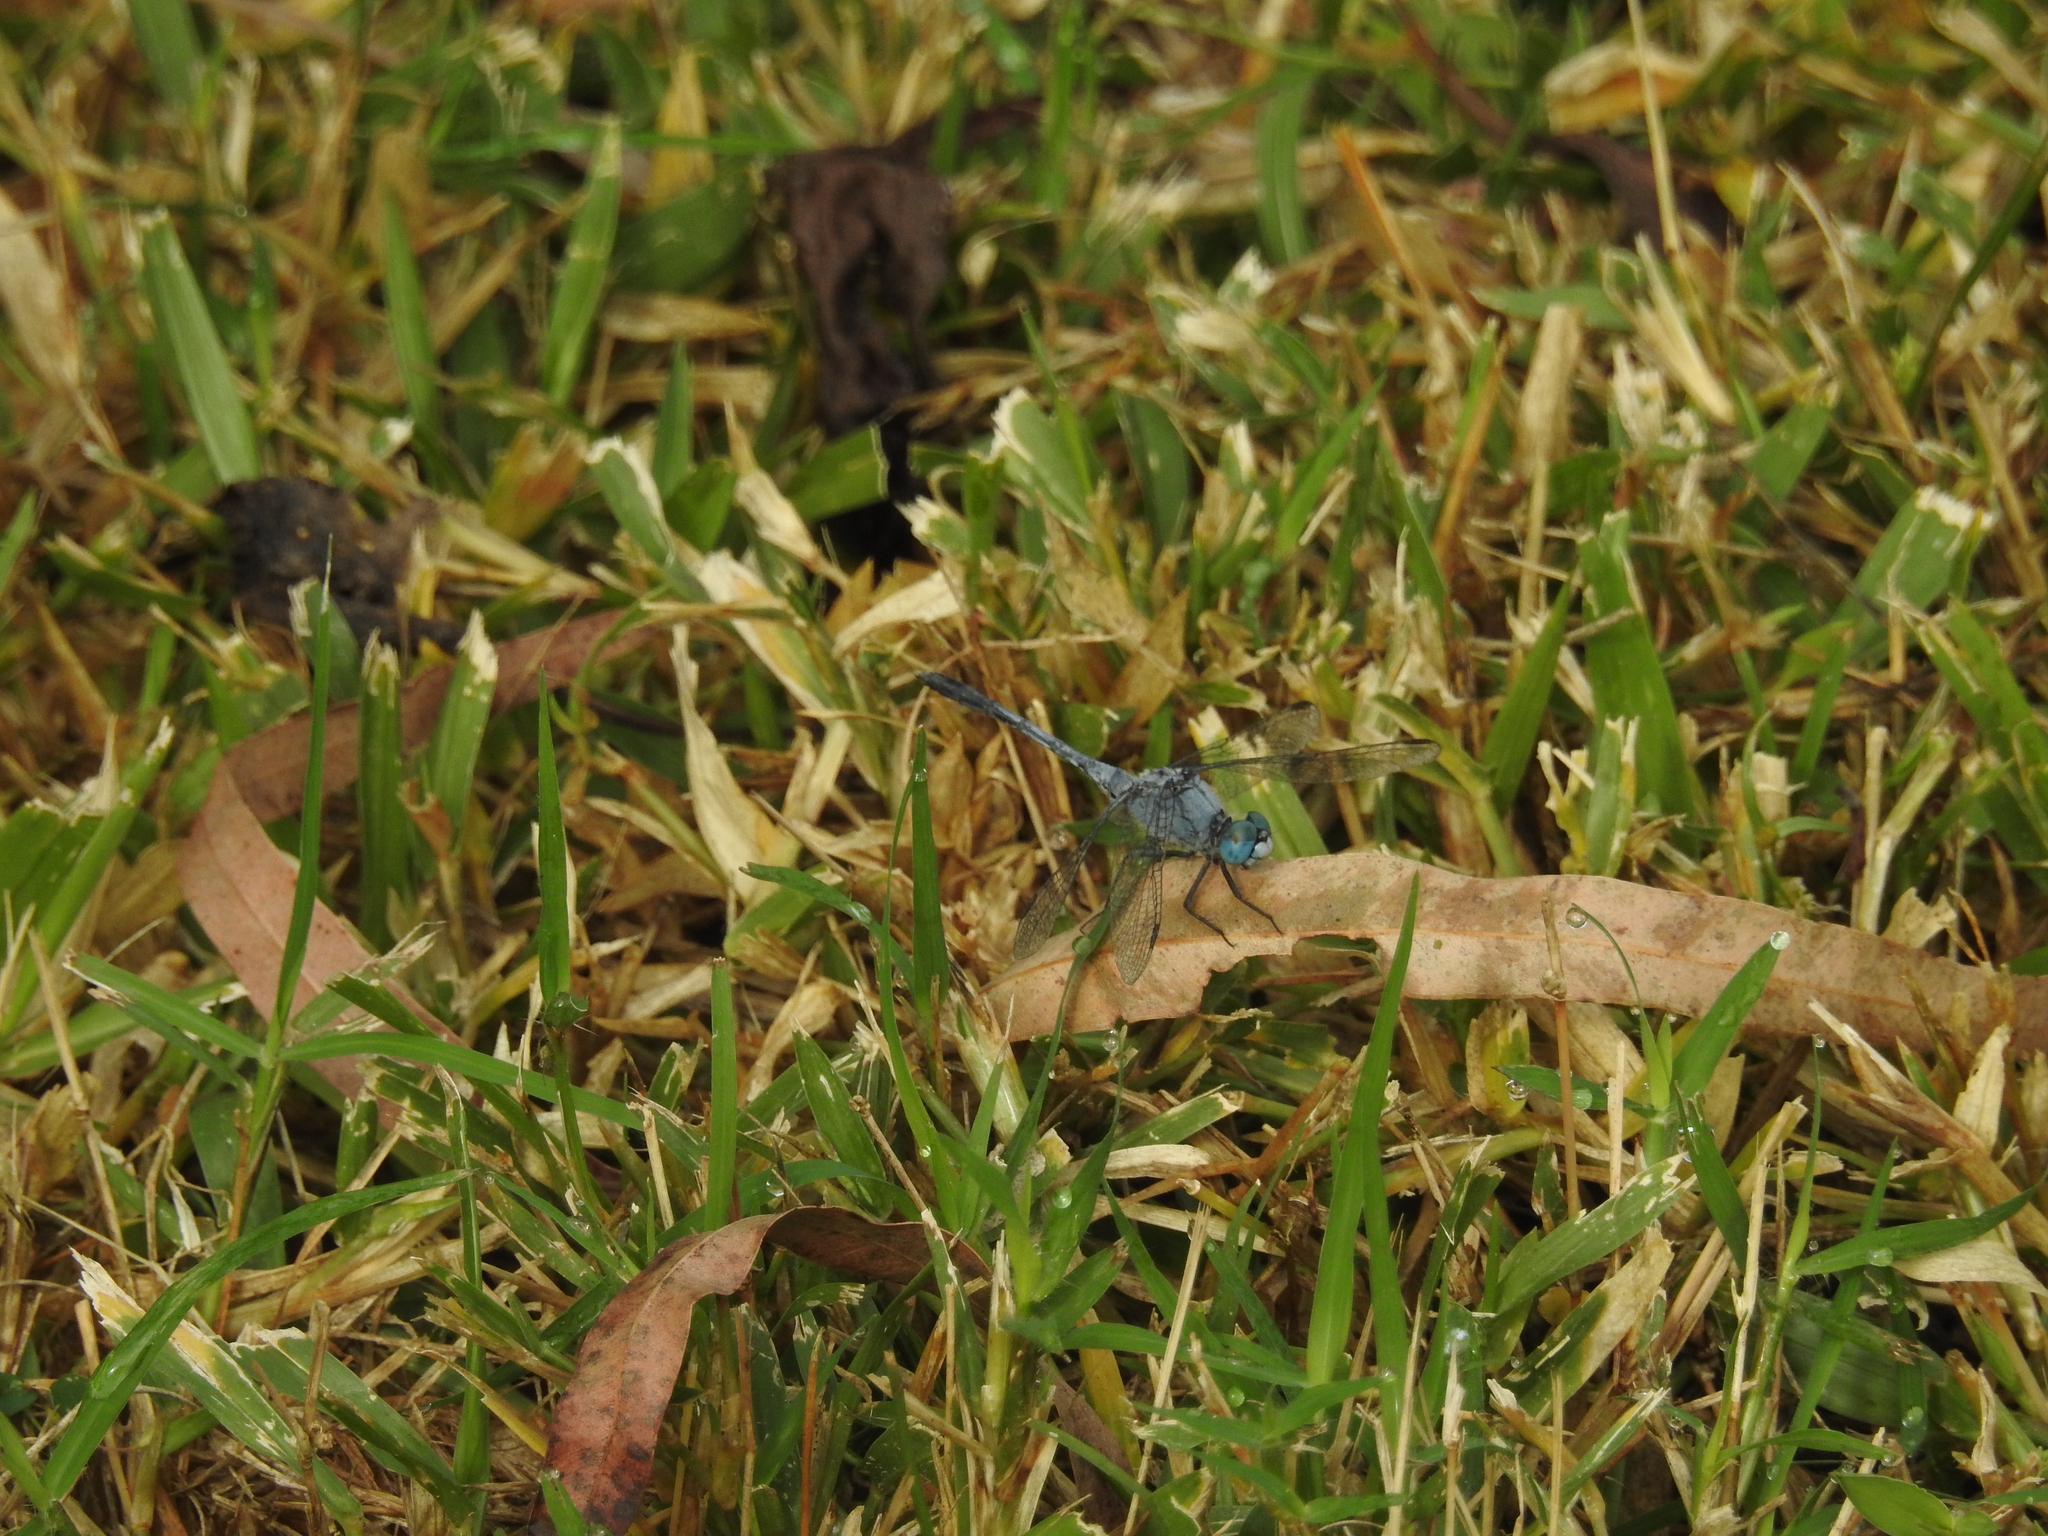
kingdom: Animalia
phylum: Arthropoda
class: Insecta
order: Odonata
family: Libellulidae
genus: Diplacodes
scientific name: Diplacodes trivialis
